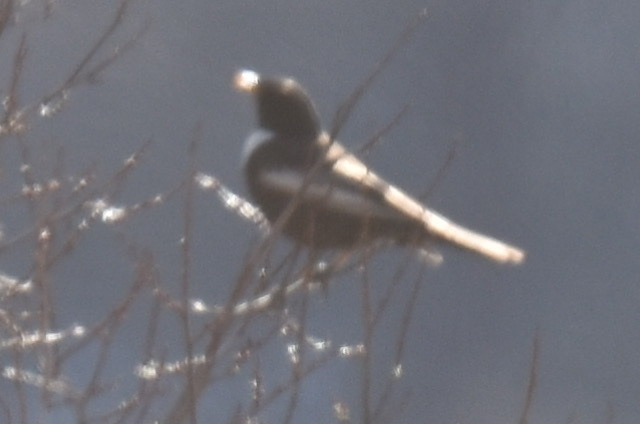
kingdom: Animalia
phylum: Chordata
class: Aves
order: Passeriformes
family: Turdidae
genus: Turdus
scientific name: Turdus torquatus
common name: Ring ouzel
